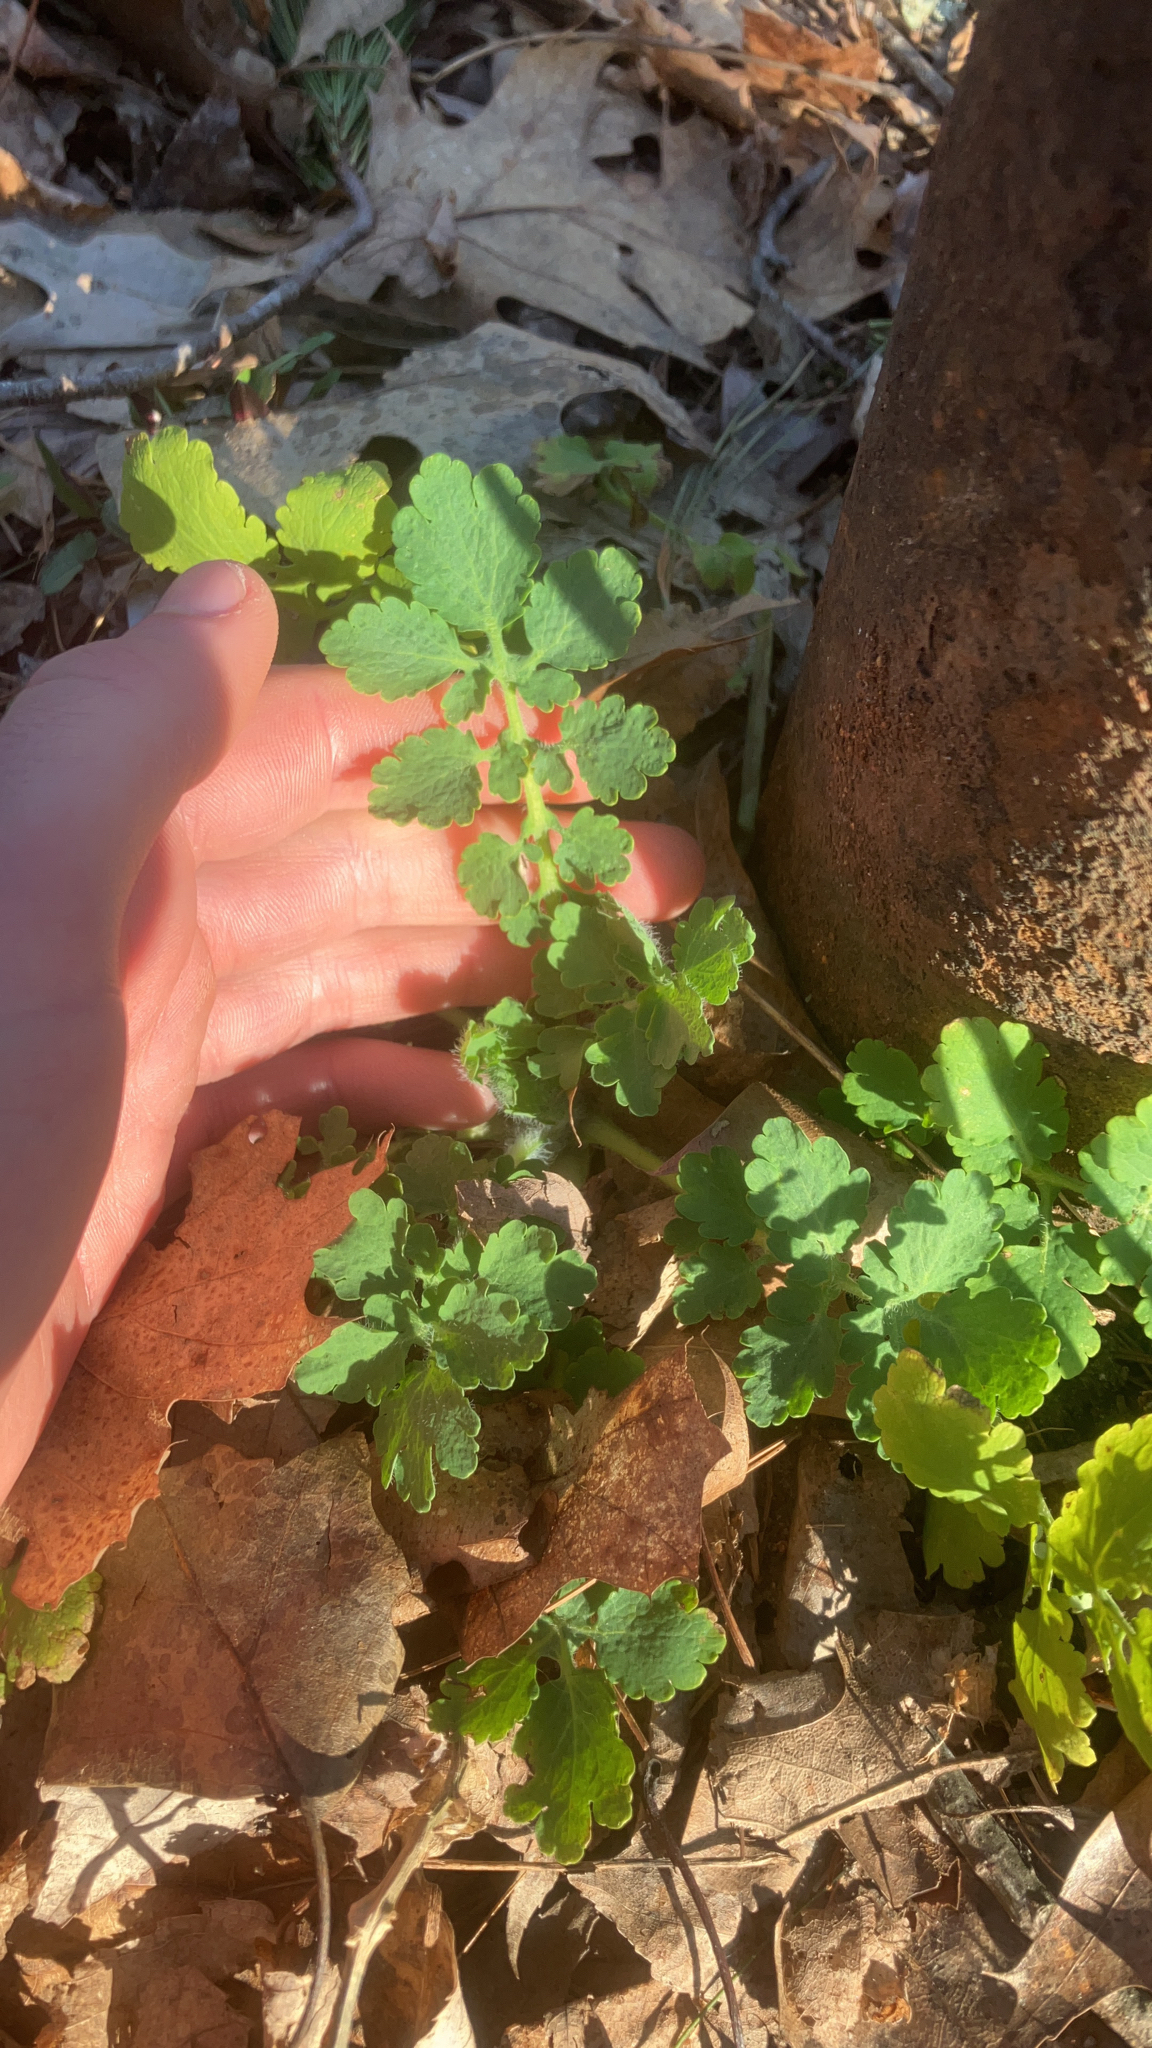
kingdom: Plantae
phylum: Tracheophyta
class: Magnoliopsida
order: Ranunculales
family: Papaveraceae
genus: Chelidonium
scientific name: Chelidonium majus
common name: Greater celandine
